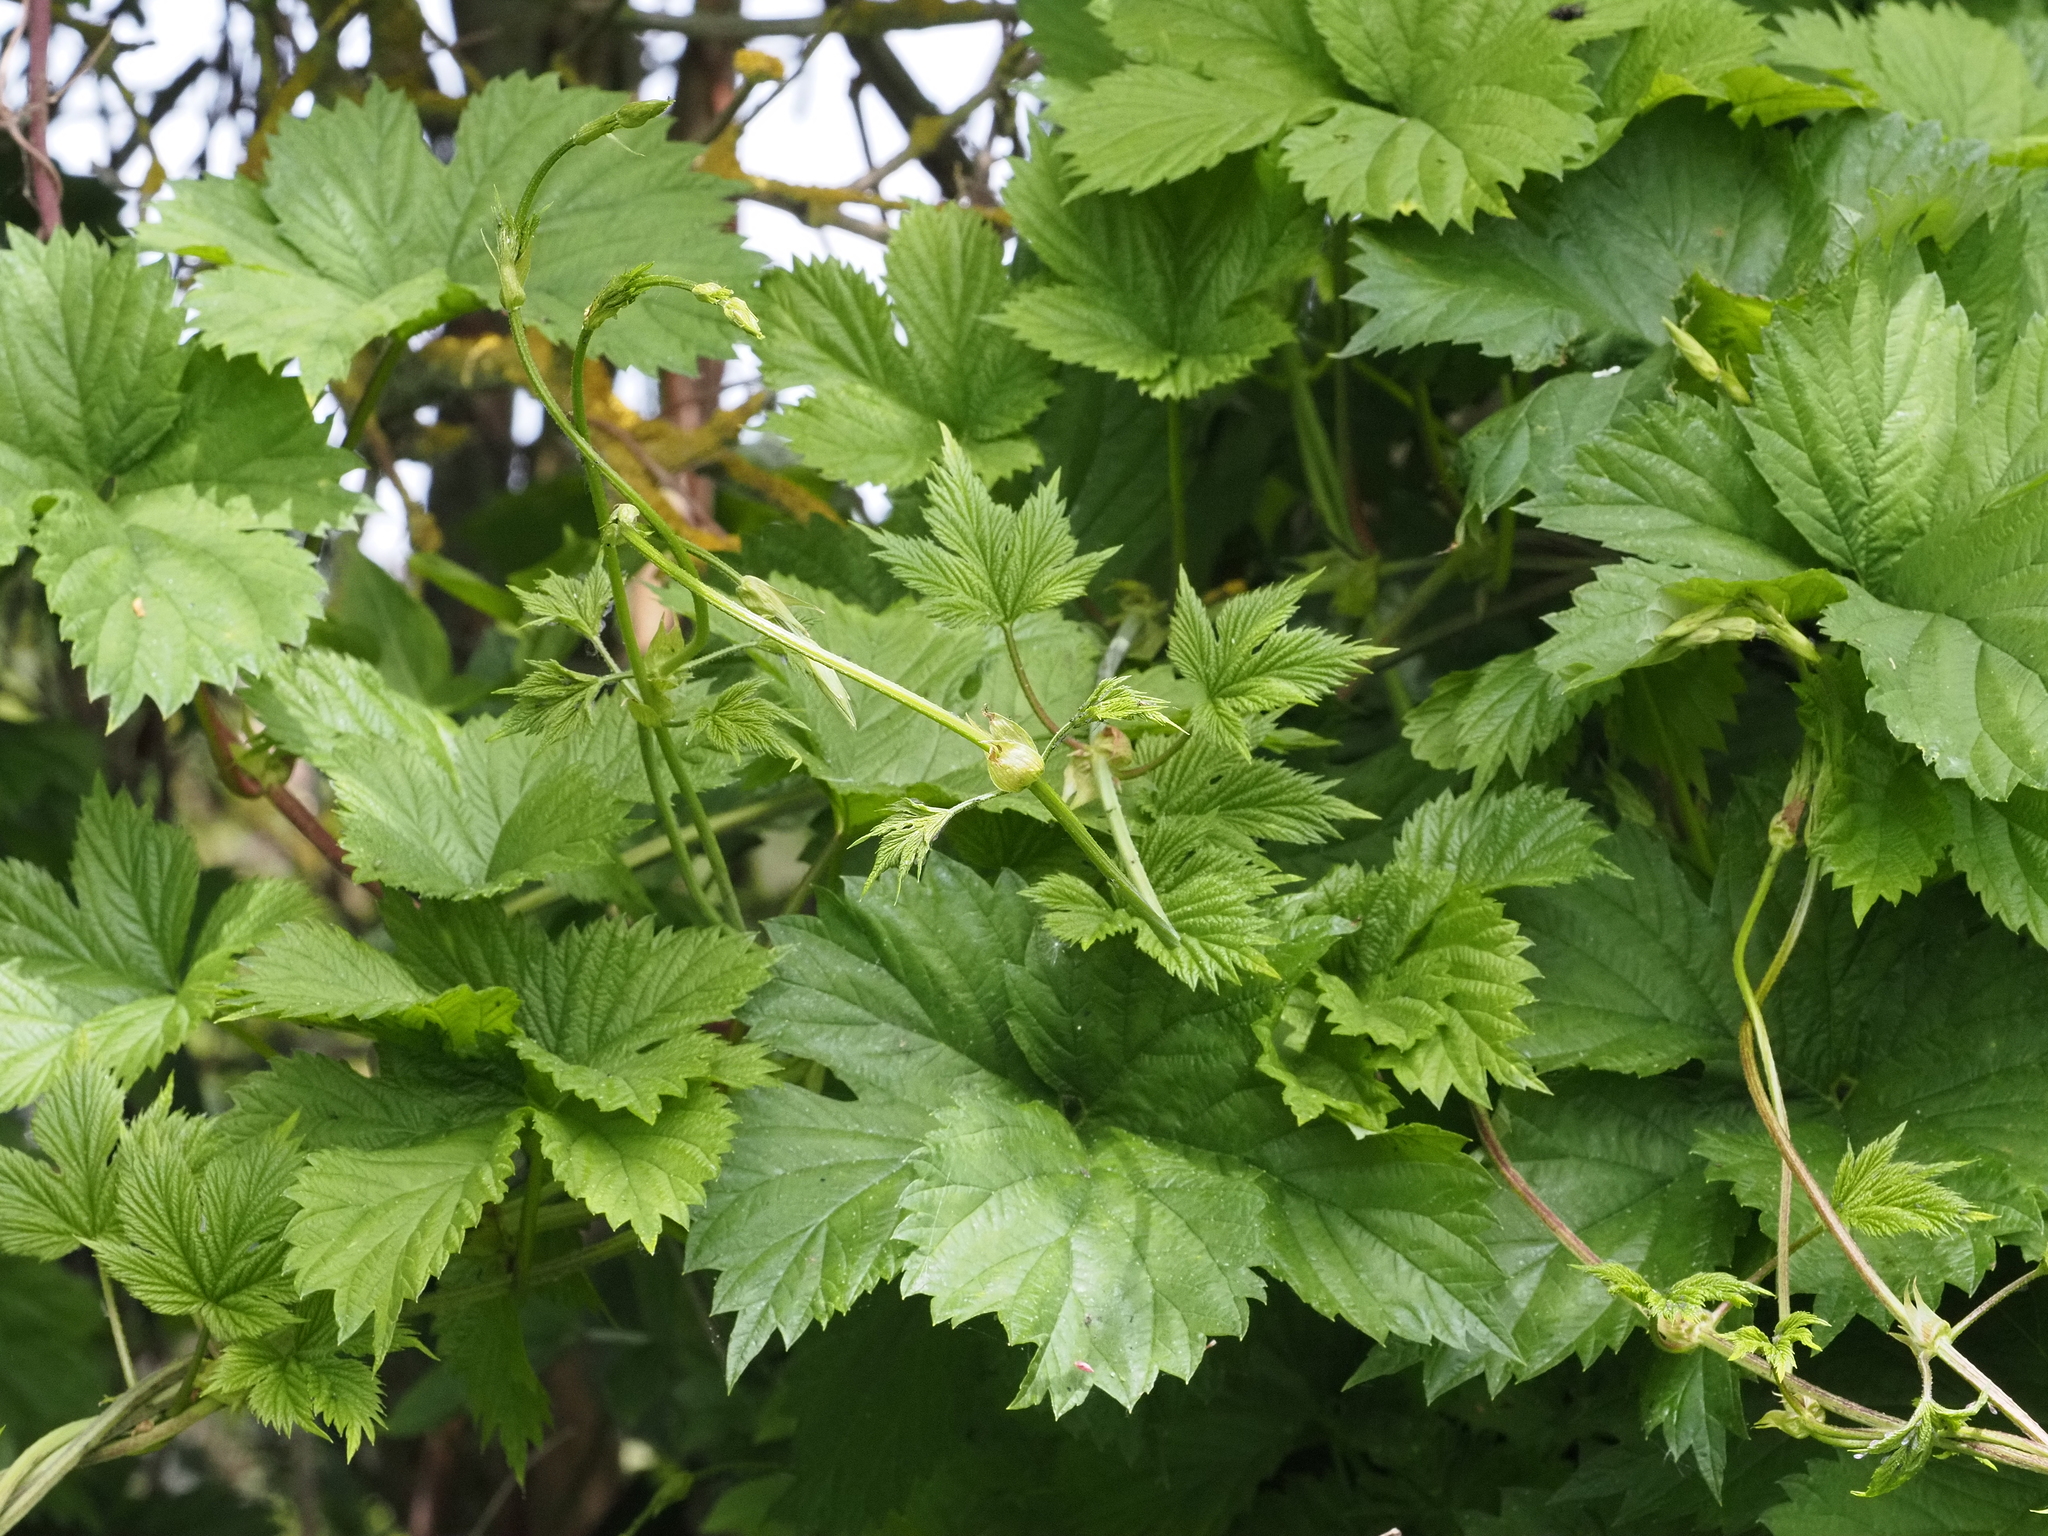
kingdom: Plantae
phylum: Tracheophyta
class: Magnoliopsida
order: Rosales
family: Cannabaceae
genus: Humulus
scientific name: Humulus lupulus
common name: Hop
